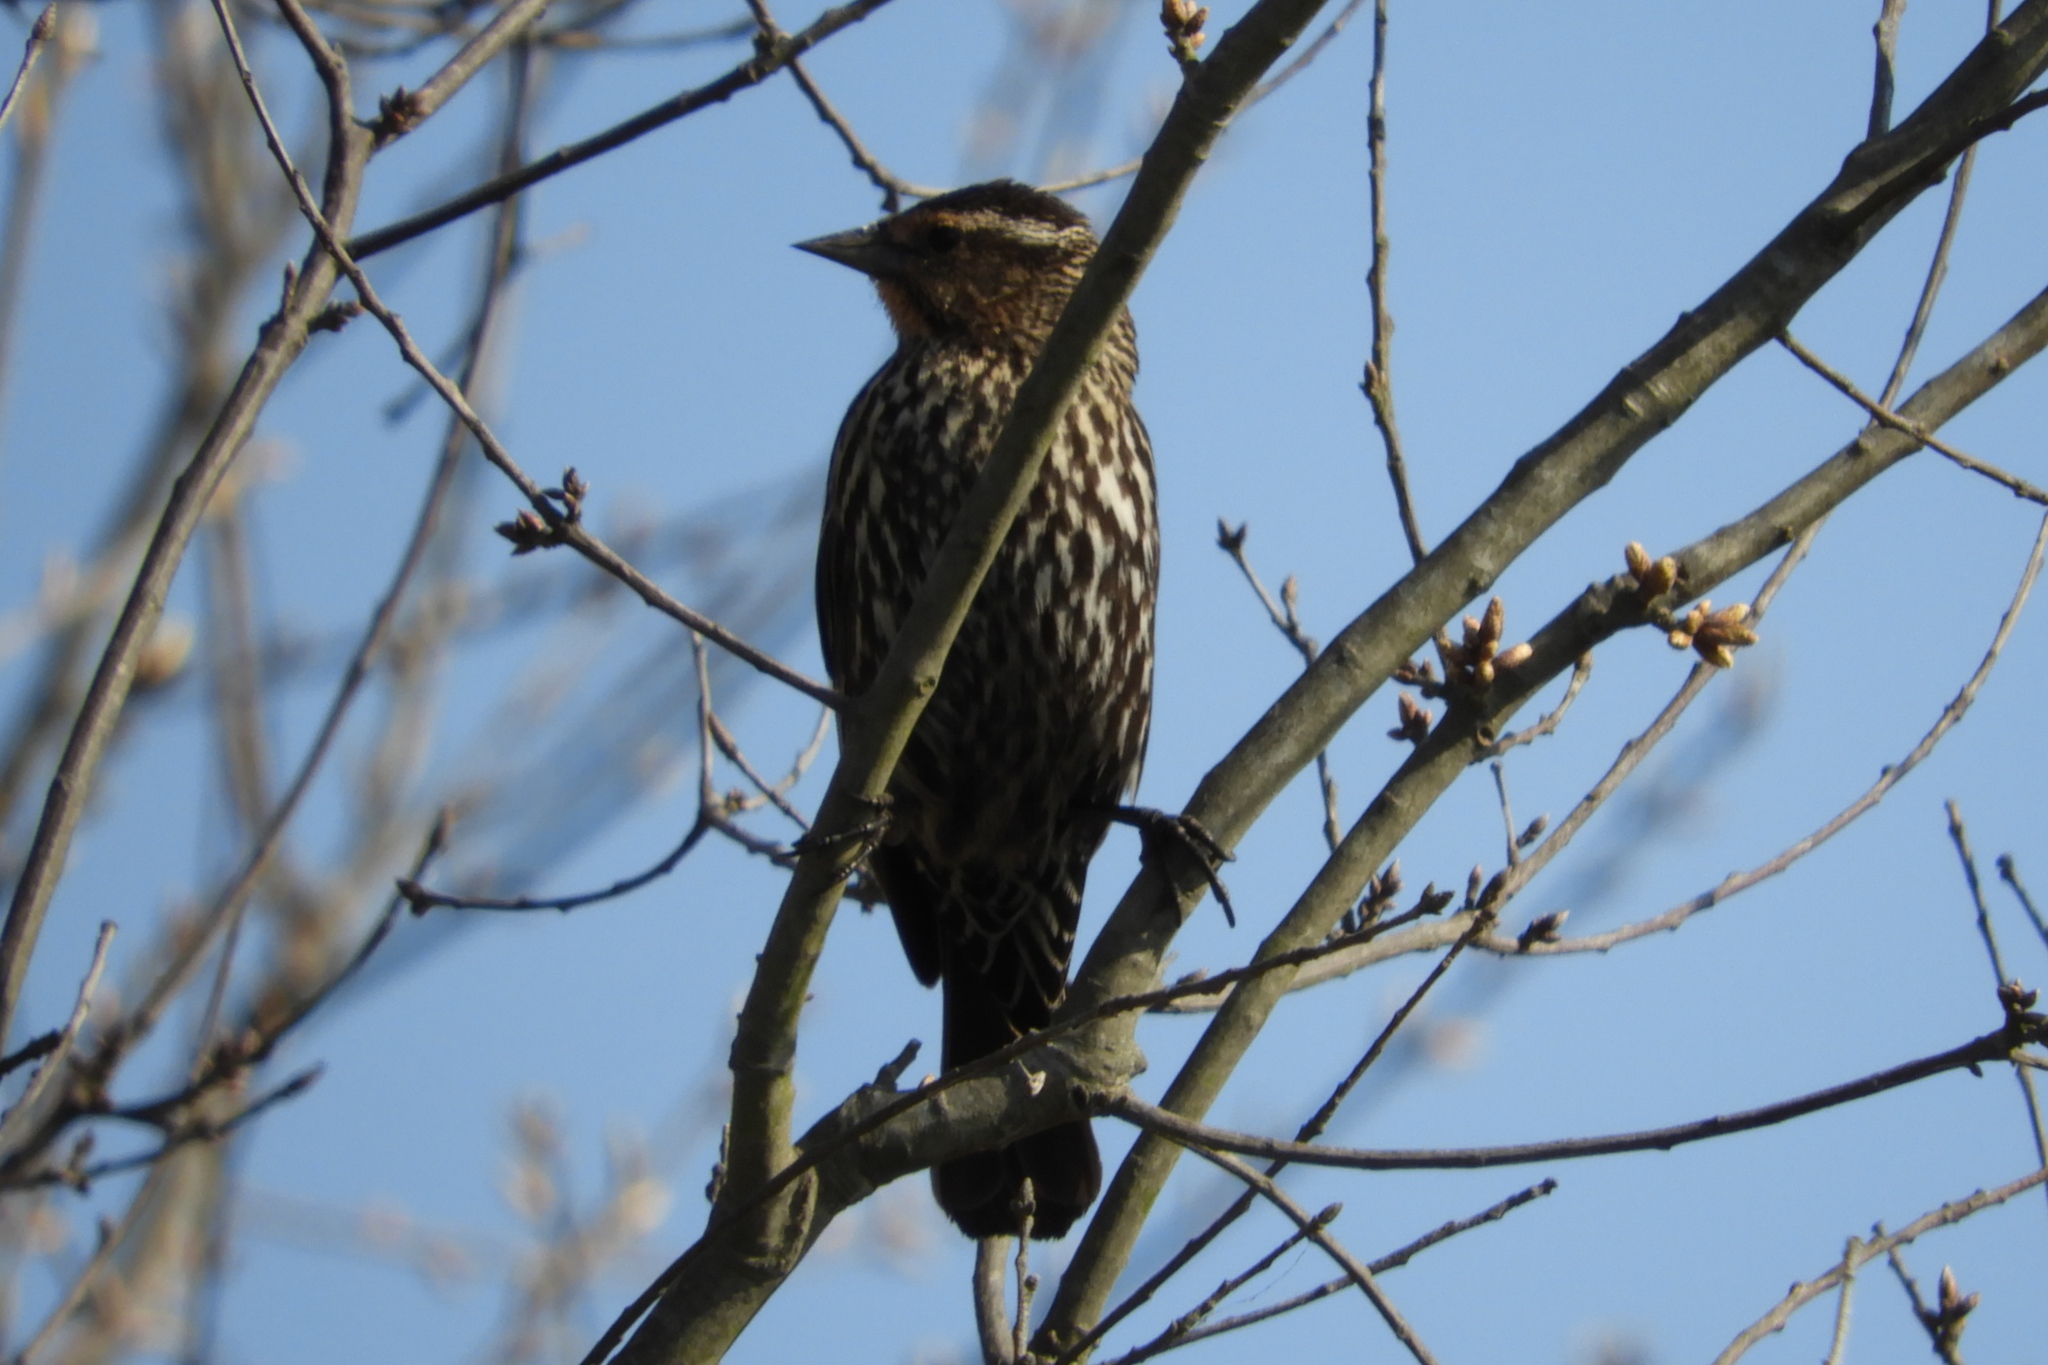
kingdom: Animalia
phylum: Chordata
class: Aves
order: Passeriformes
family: Icteridae
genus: Agelaius
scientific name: Agelaius phoeniceus
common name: Red-winged blackbird
